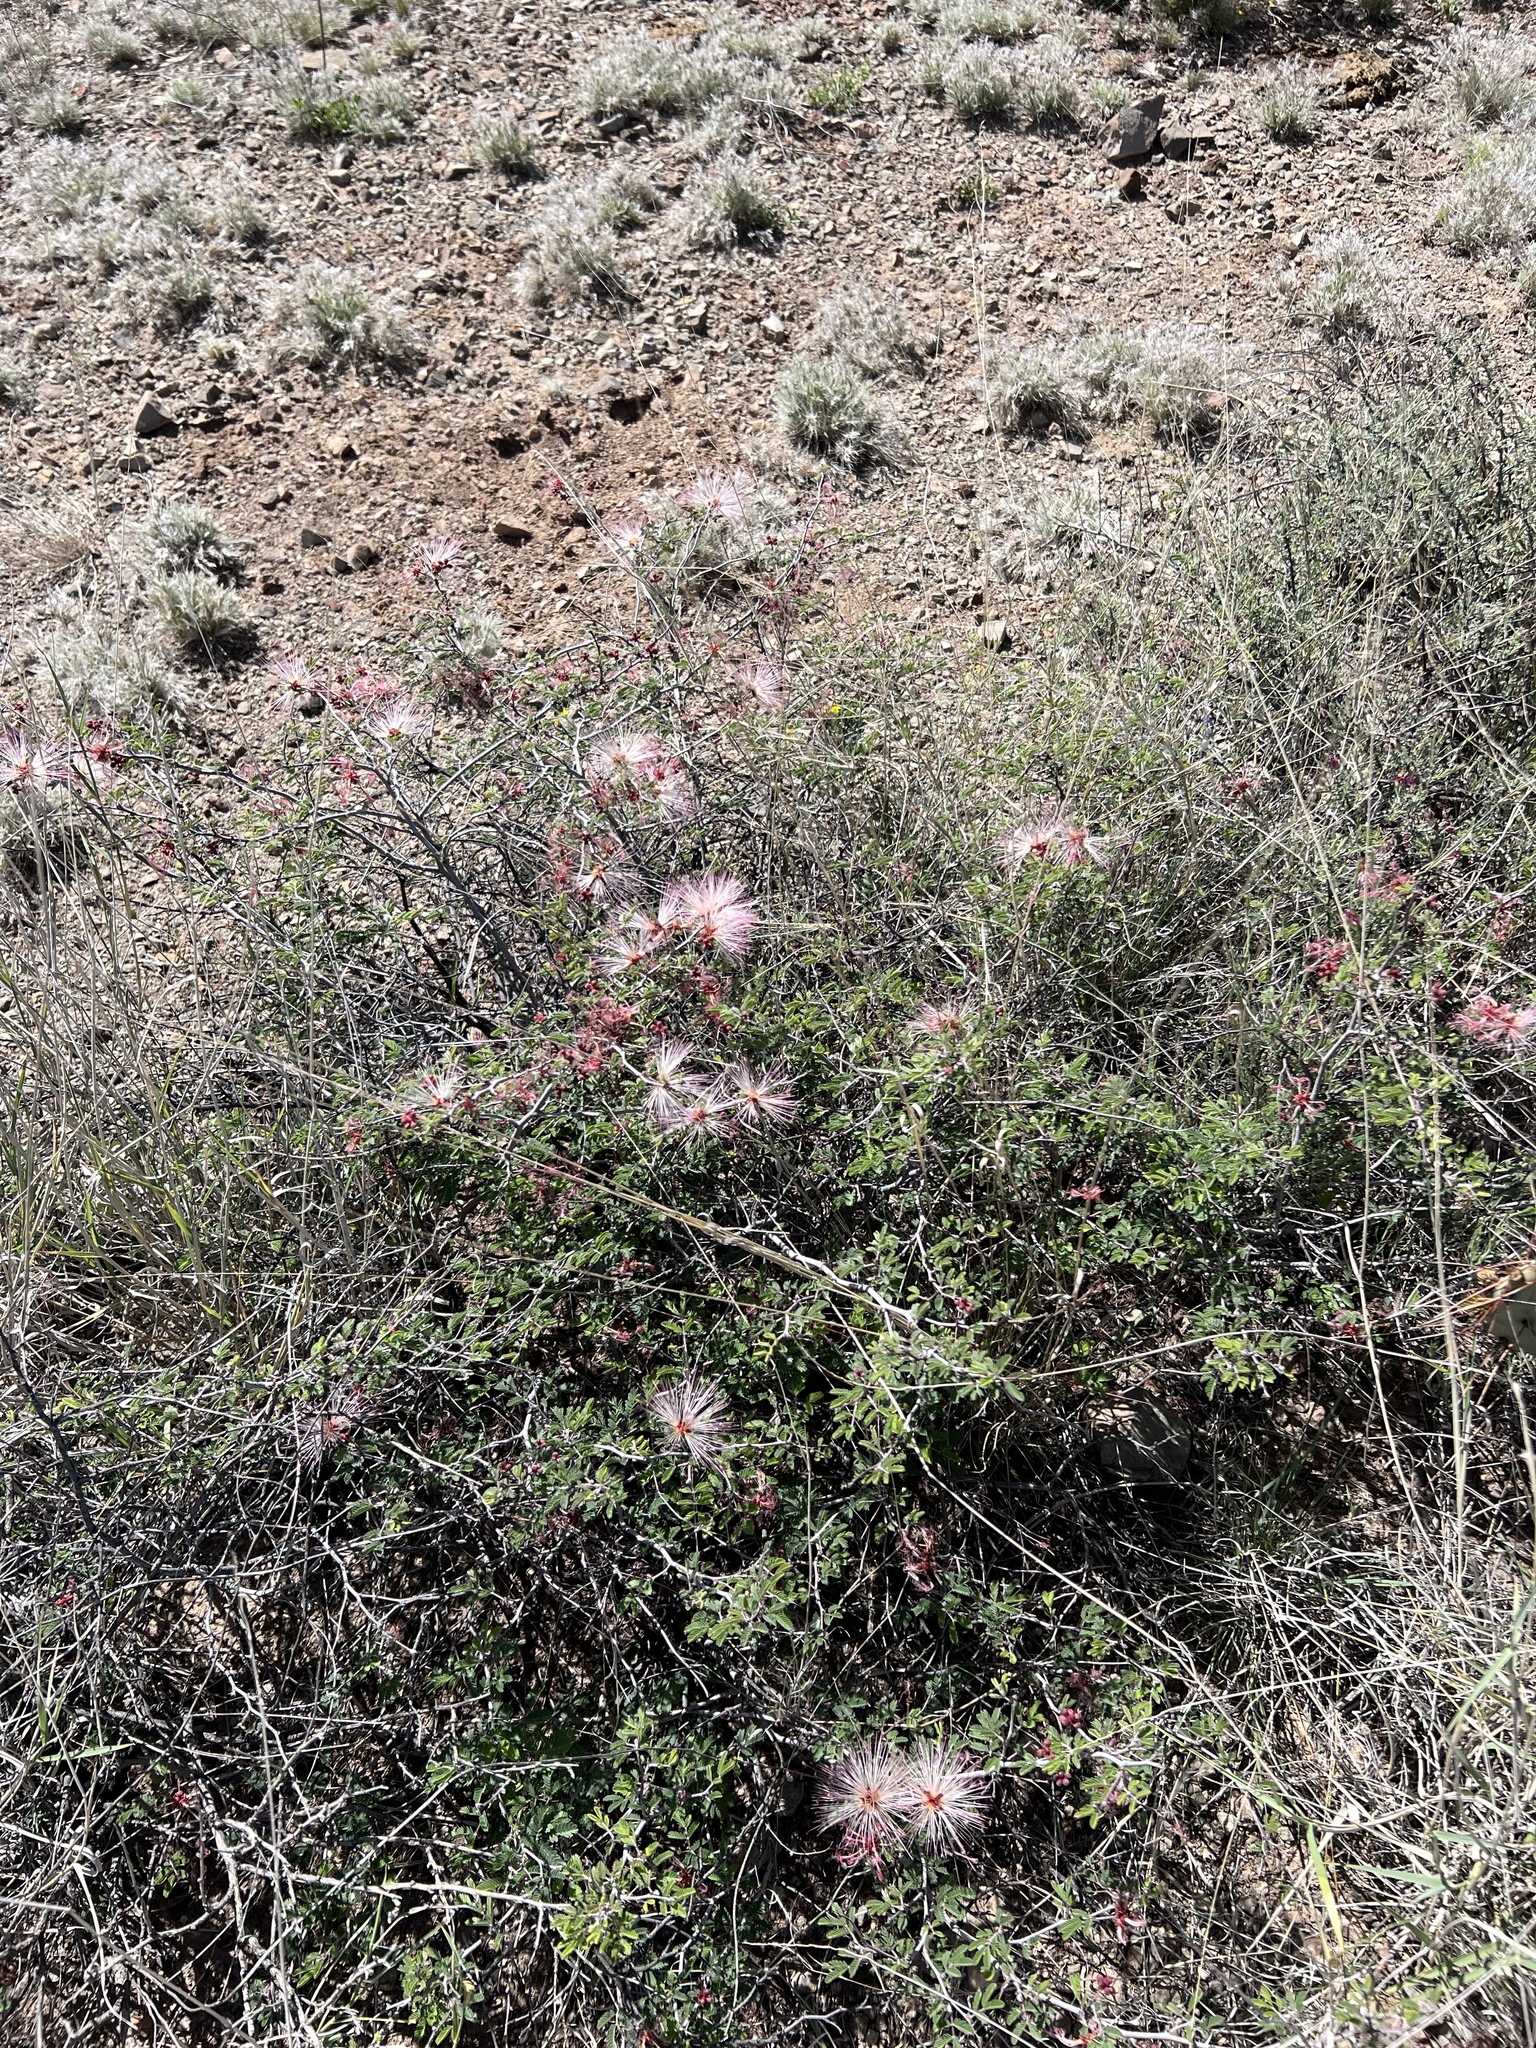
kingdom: Plantae
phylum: Tracheophyta
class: Magnoliopsida
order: Fabales
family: Fabaceae
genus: Calliandra
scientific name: Calliandra eriophylla
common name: Fairy-duster
